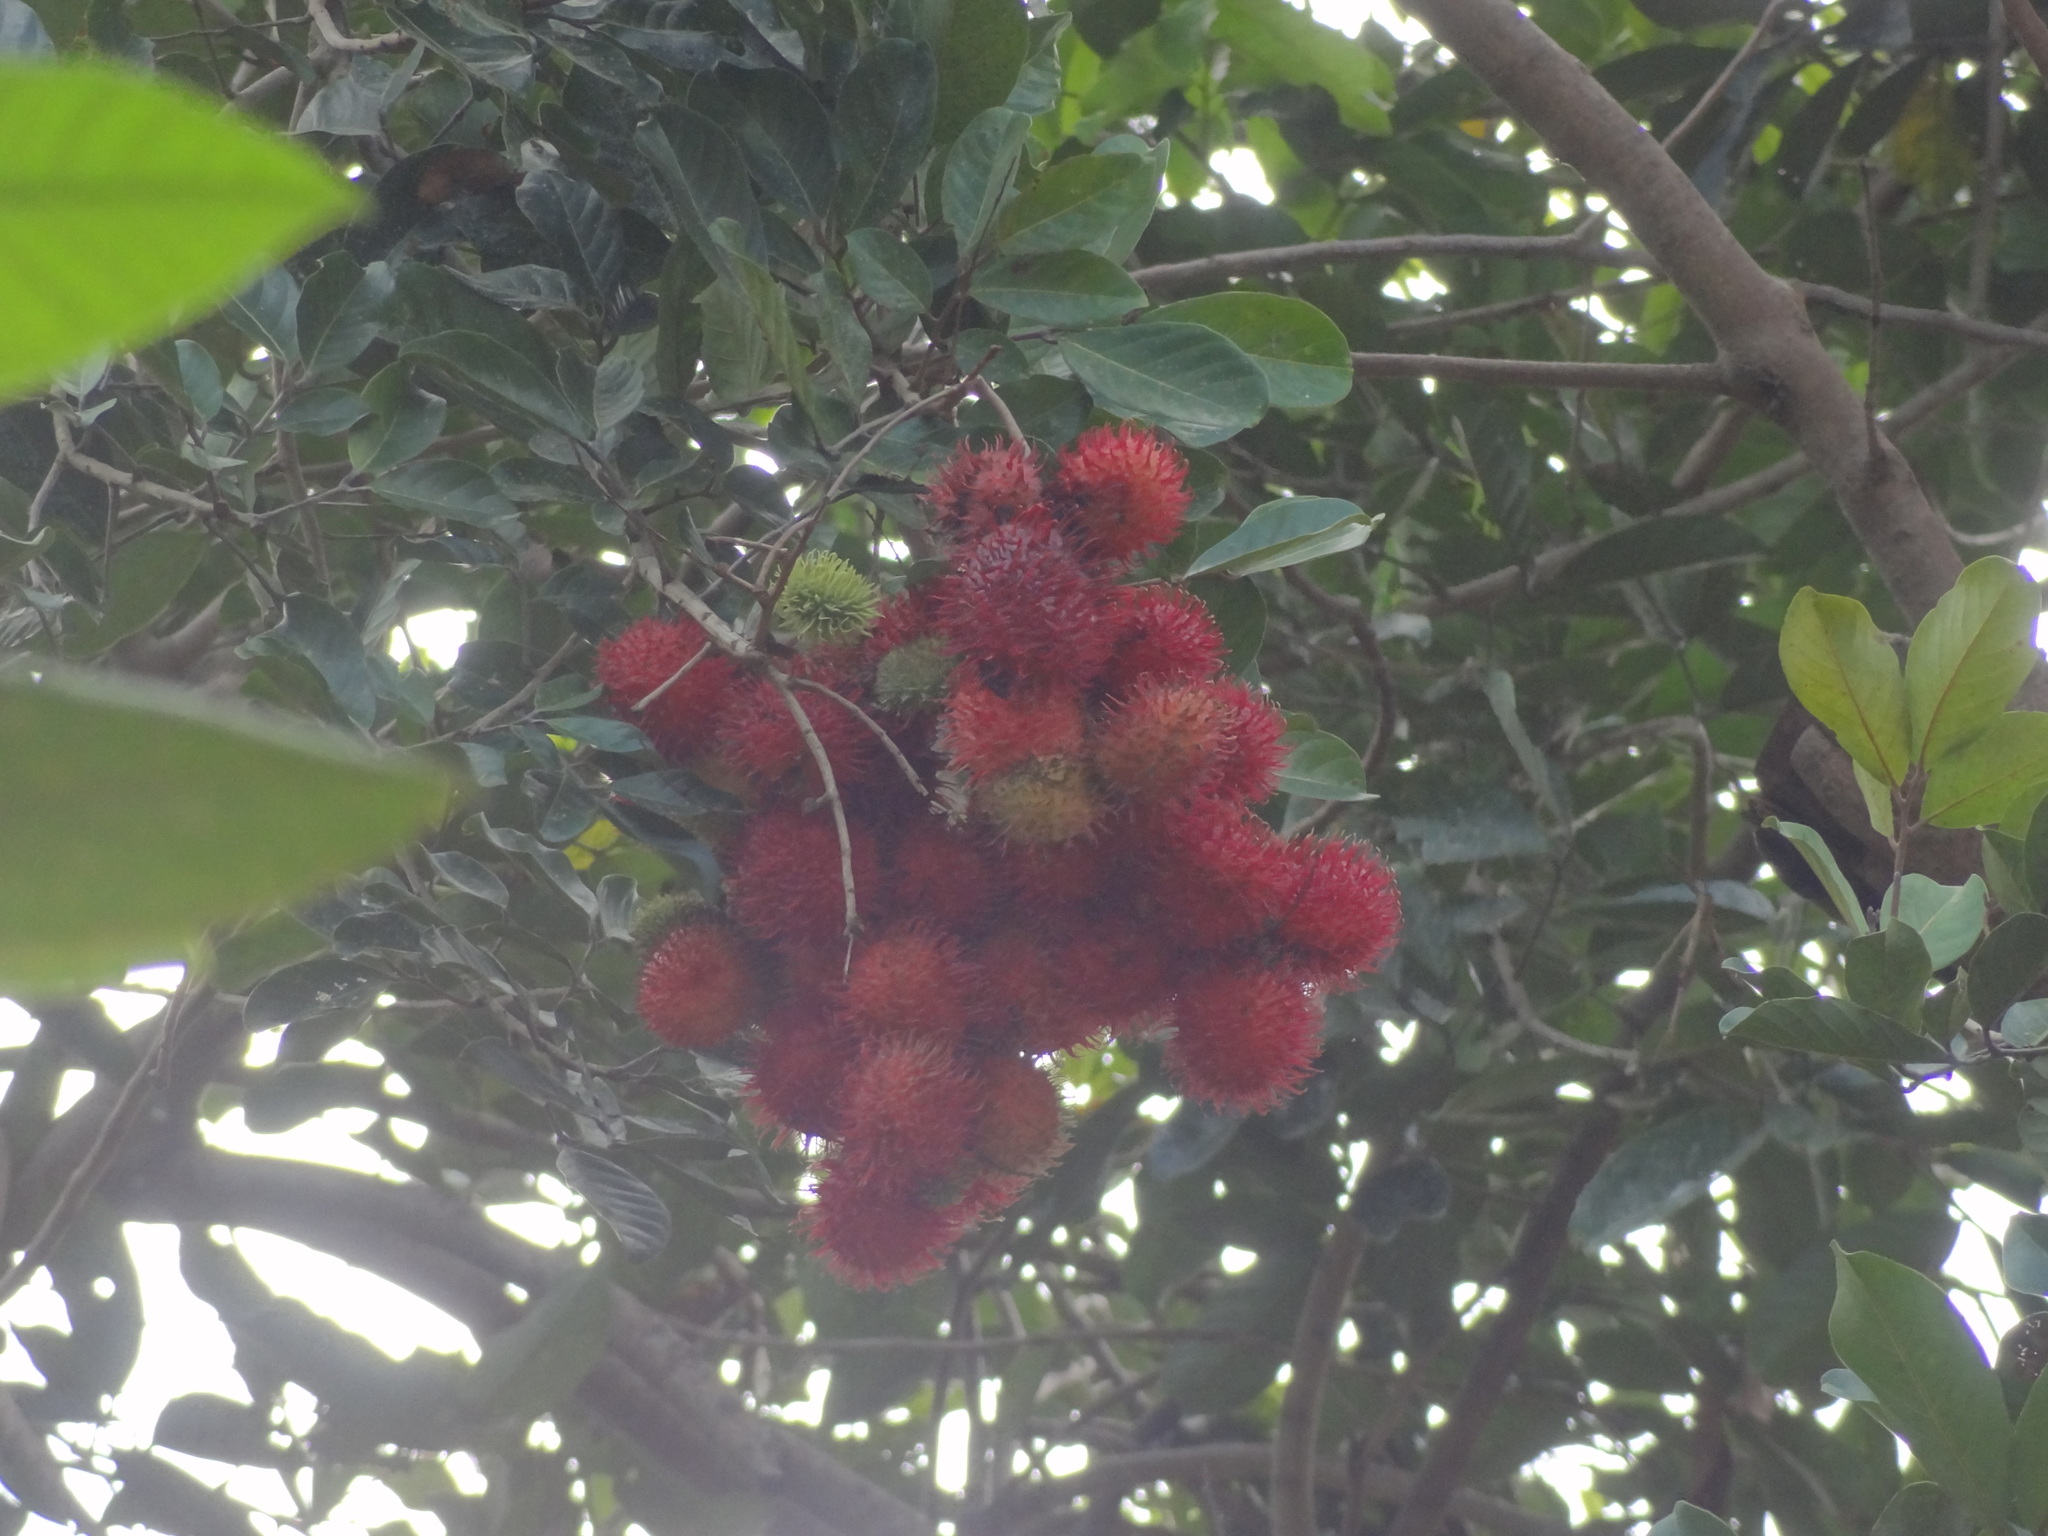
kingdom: Plantae
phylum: Tracheophyta
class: Magnoliopsida
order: Sapindales
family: Sapindaceae
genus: Nephelium
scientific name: Nephelium lappaceum
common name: Rambutan
